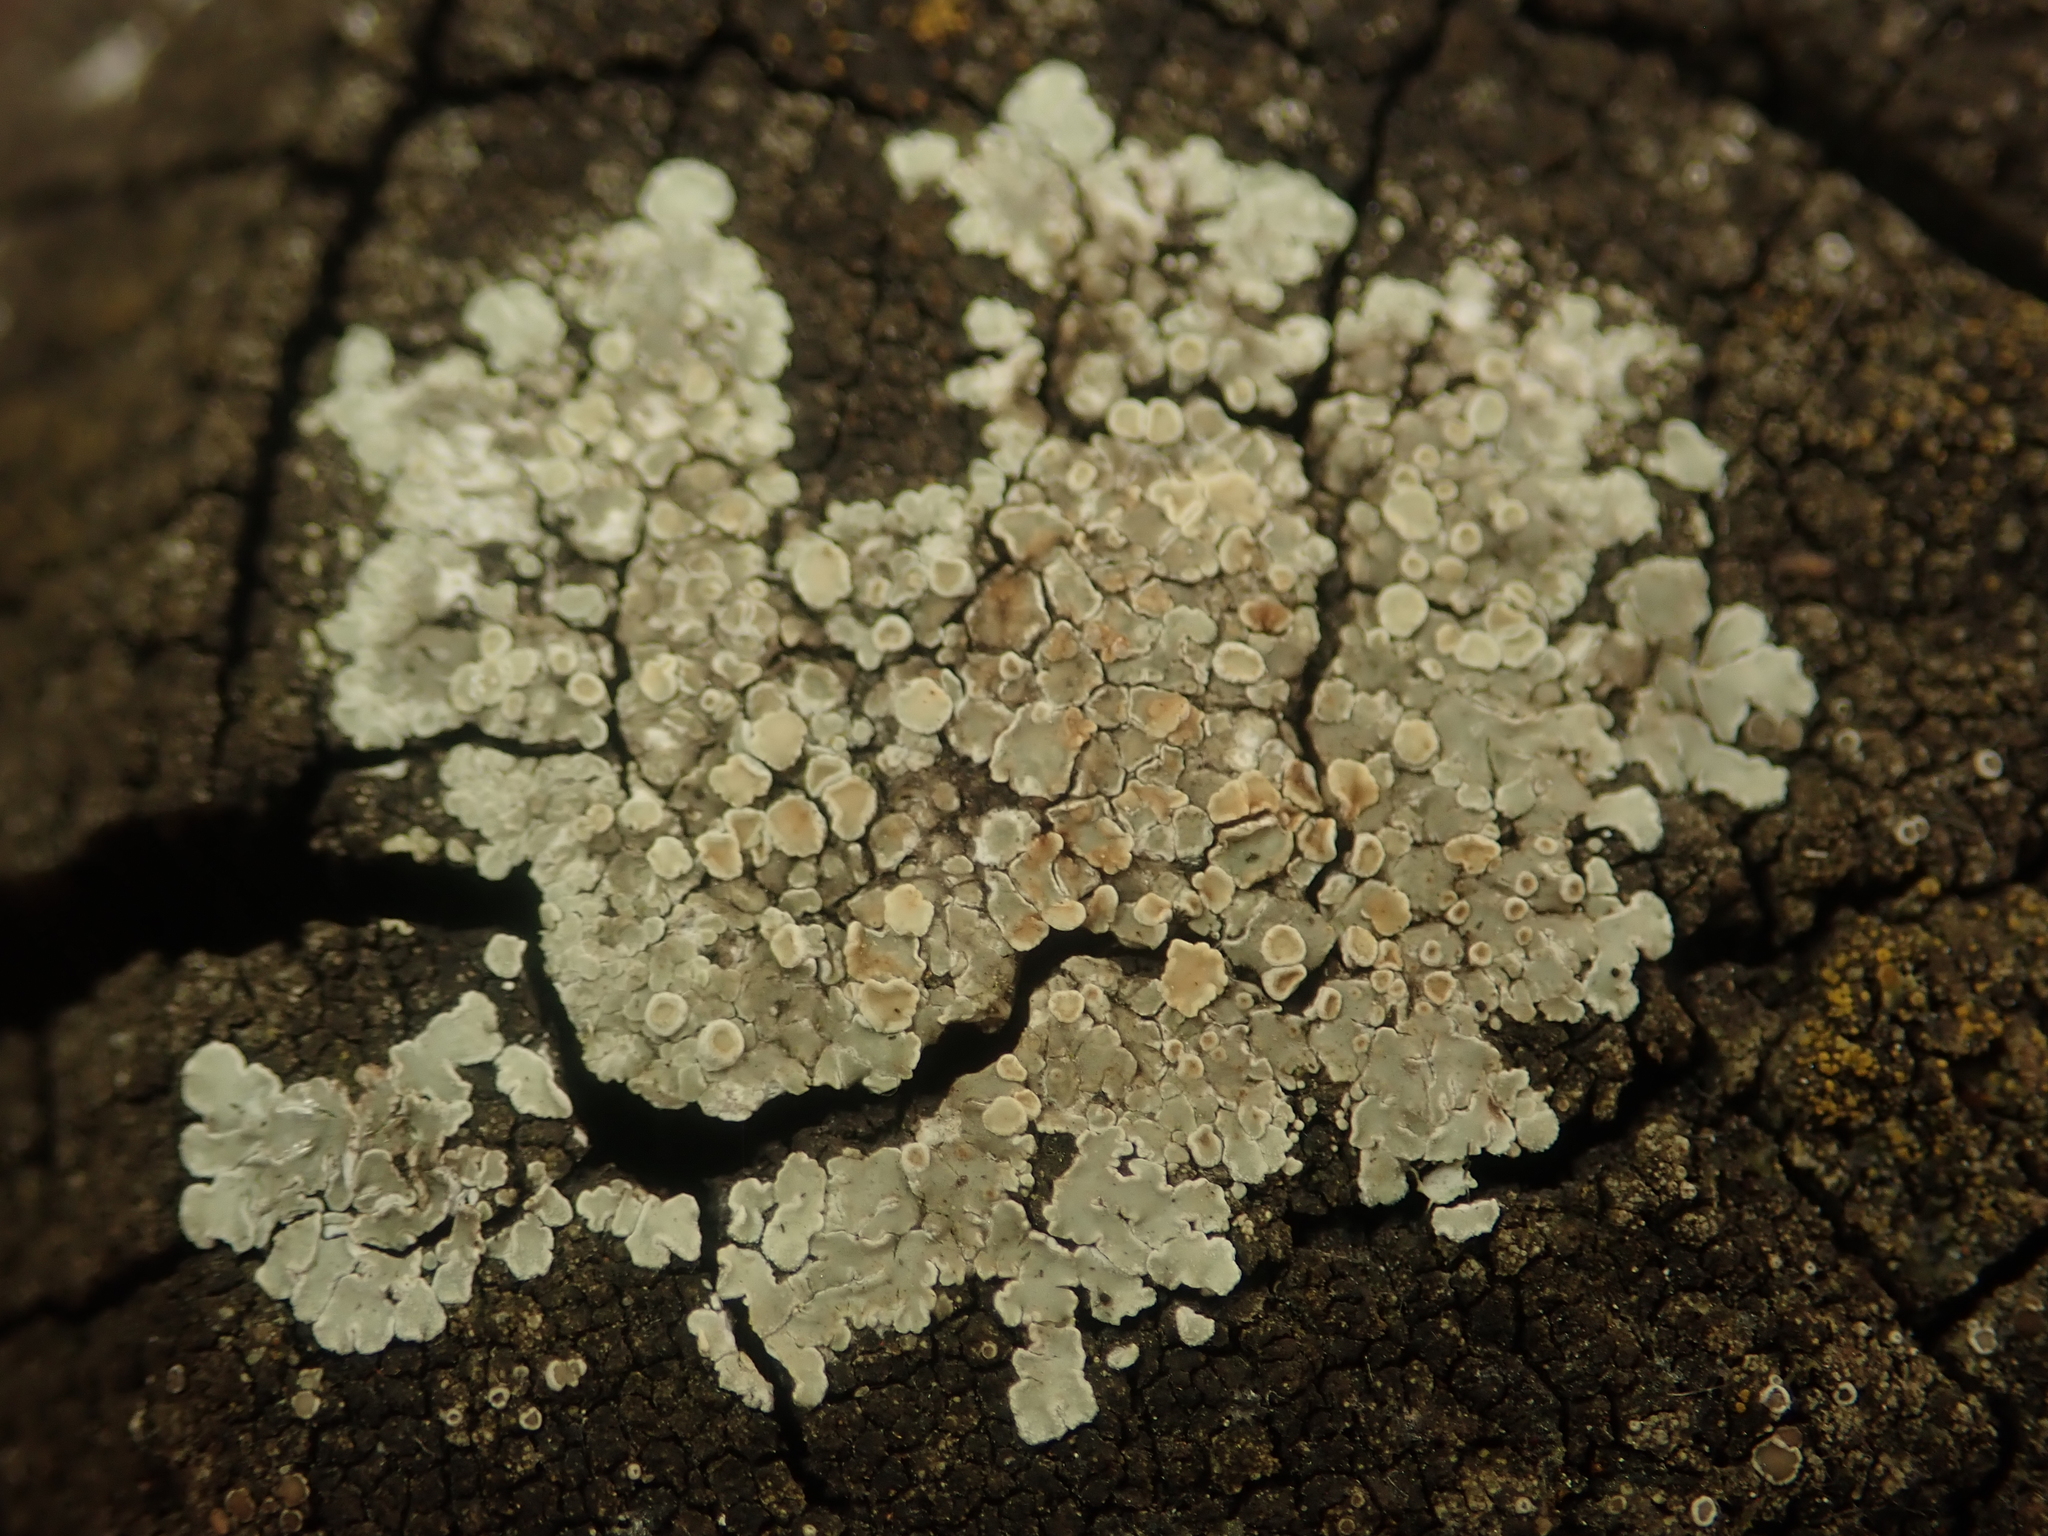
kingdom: Fungi
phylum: Ascomycota
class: Lecanoromycetes
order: Lecanorales
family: Lecanoraceae
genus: Protoparmeliopsis
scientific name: Protoparmeliopsis muralis
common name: Stonewall rim lichen
